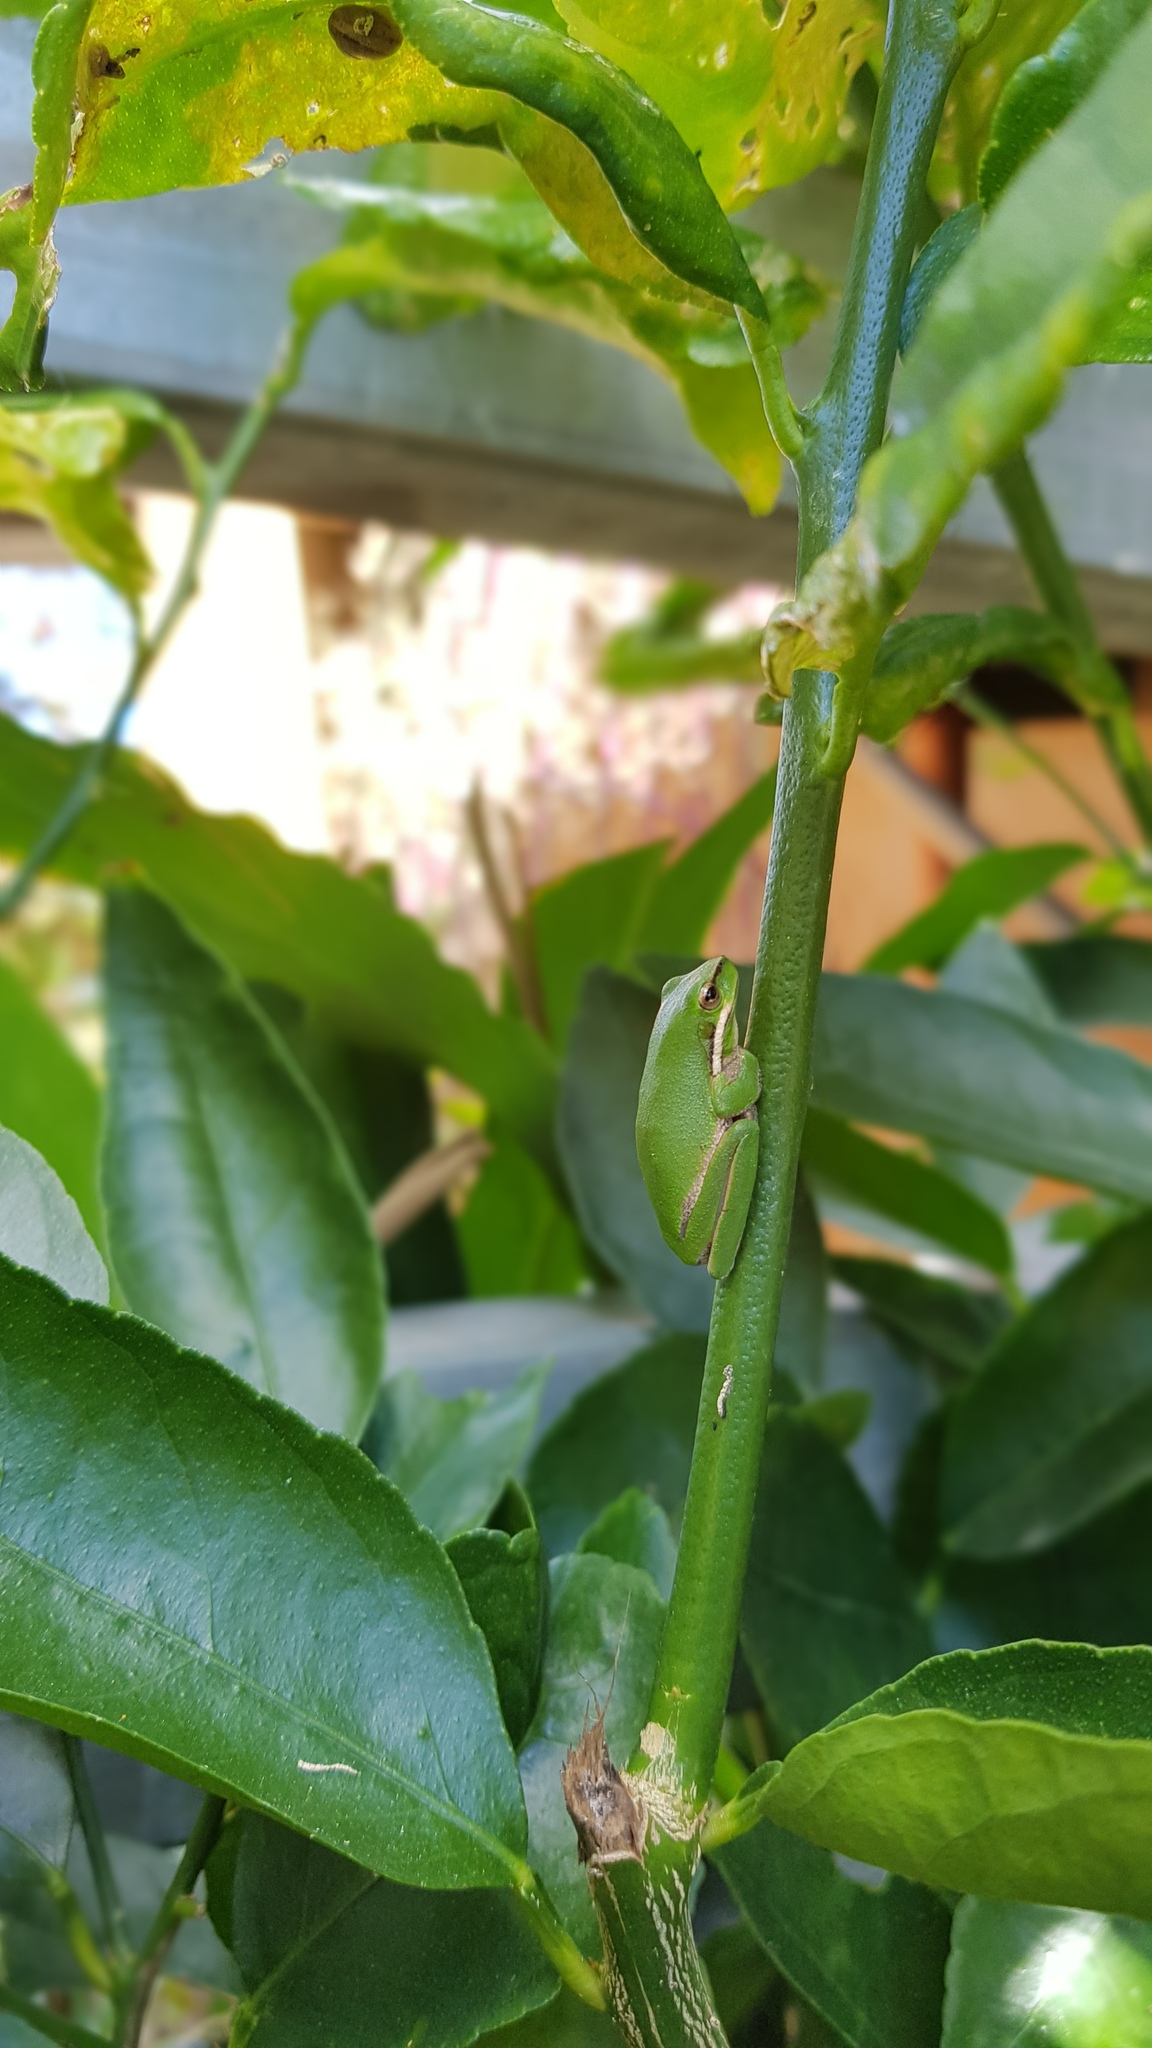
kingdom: Animalia
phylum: Chordata
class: Amphibia
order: Anura
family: Pelodryadidae
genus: Litoria
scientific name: Litoria fallax
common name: Eastern dwarf treefrog
